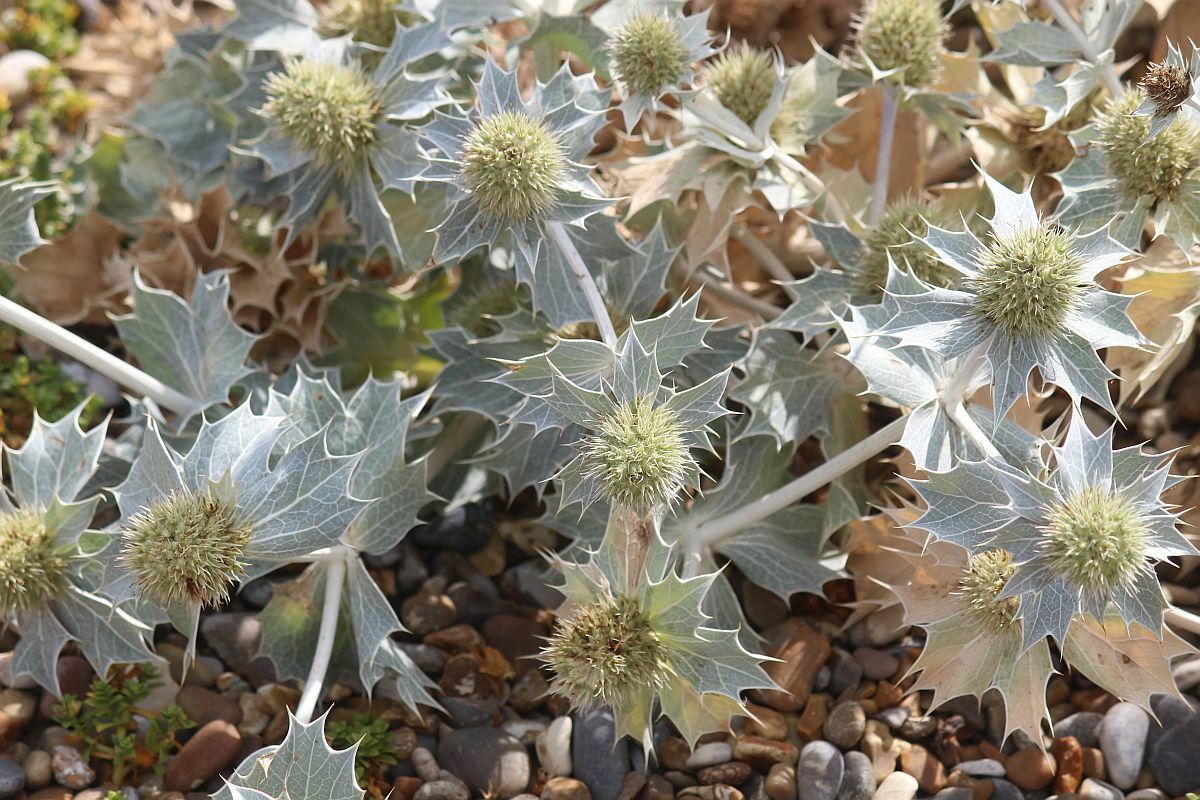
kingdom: Plantae
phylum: Tracheophyta
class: Magnoliopsida
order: Apiales
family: Apiaceae
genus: Eryngium
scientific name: Eryngium maritimum
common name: Sea-holly
